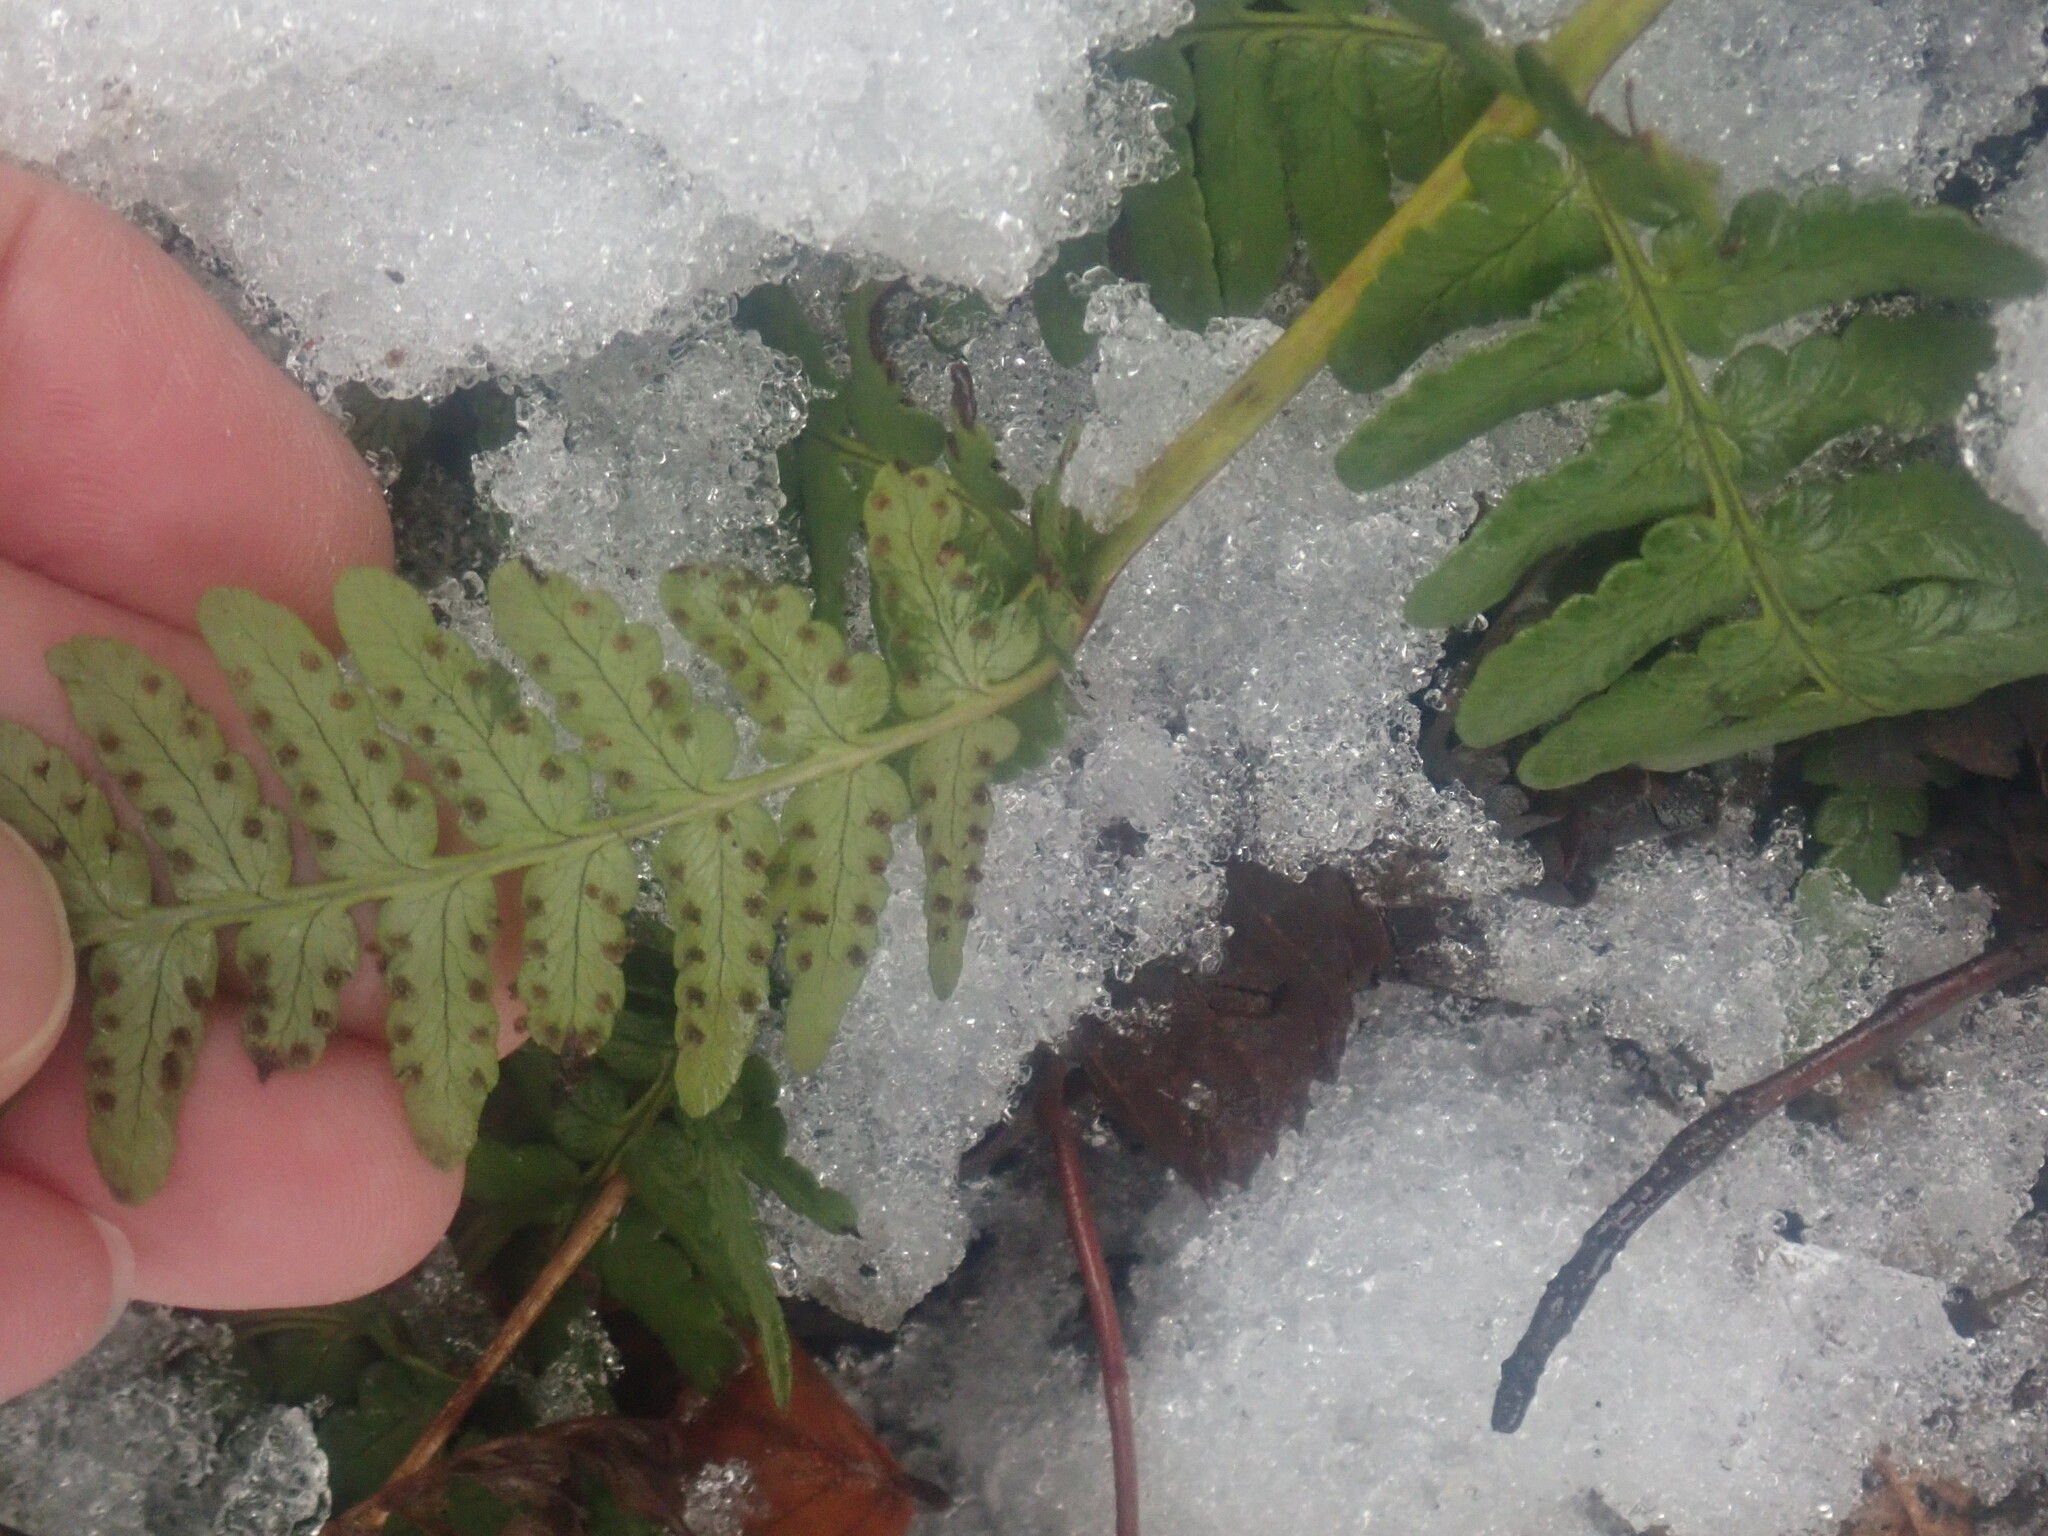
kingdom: Plantae
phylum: Tracheophyta
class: Polypodiopsida
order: Polypodiales
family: Dryopteridaceae
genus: Dryopteris
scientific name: Dryopteris marginalis
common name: Marginal wood fern
